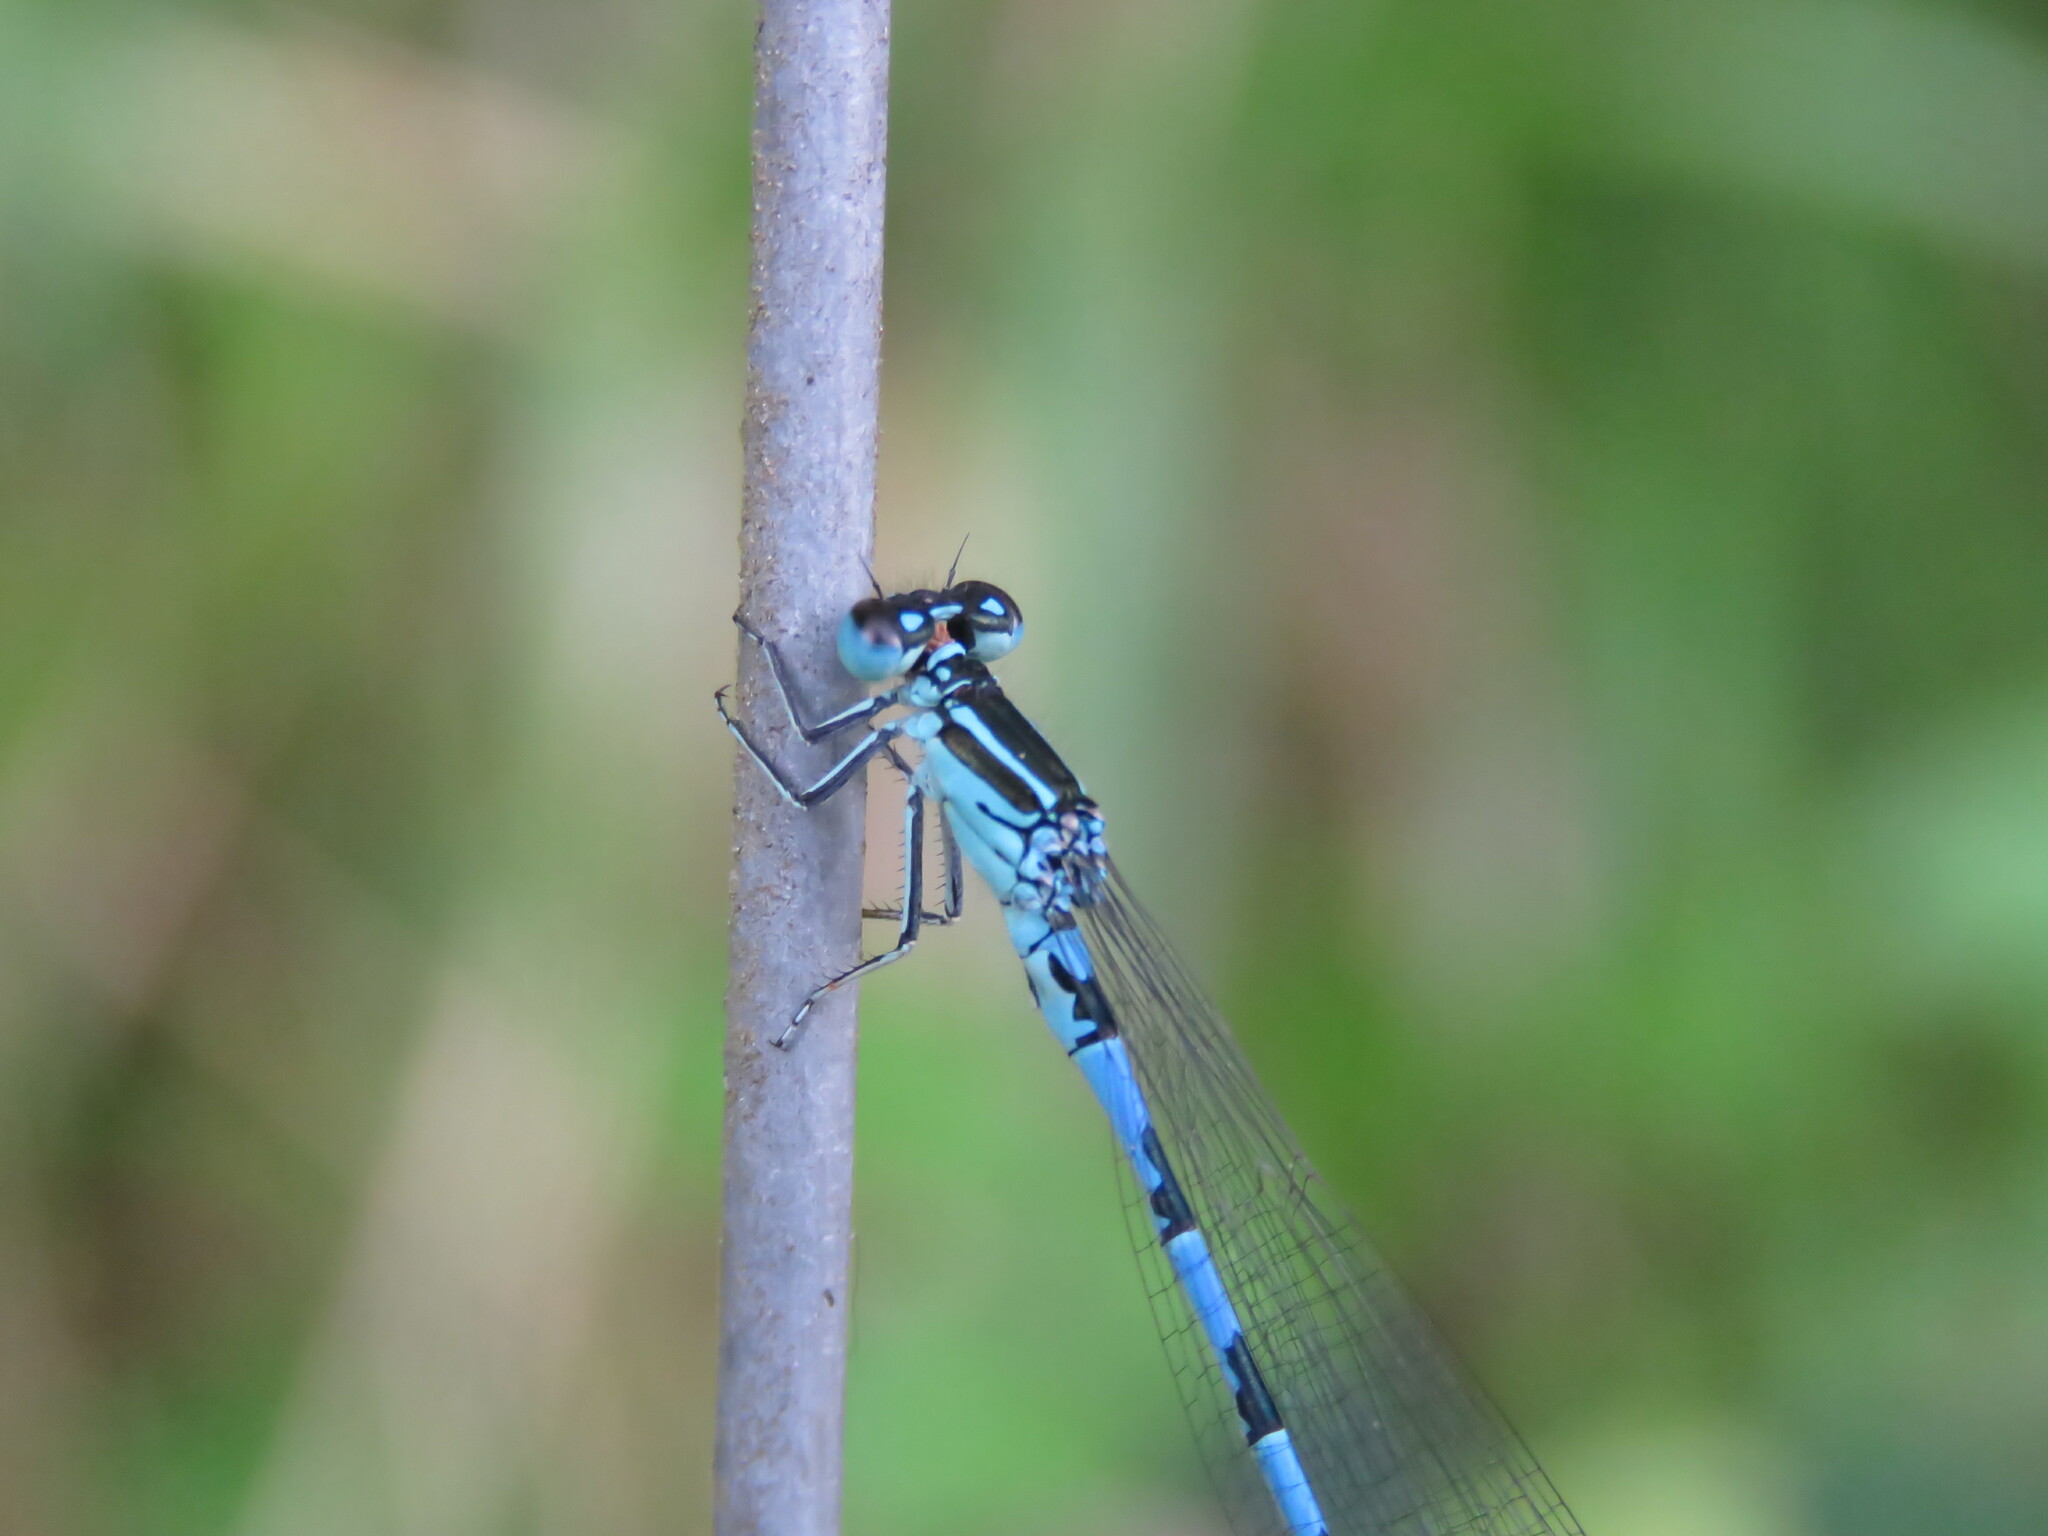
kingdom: Animalia
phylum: Arthropoda
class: Insecta
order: Odonata
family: Coenagrionidae
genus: Coenagrion
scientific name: Coenagrion mercuriale
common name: Southern damselfly
